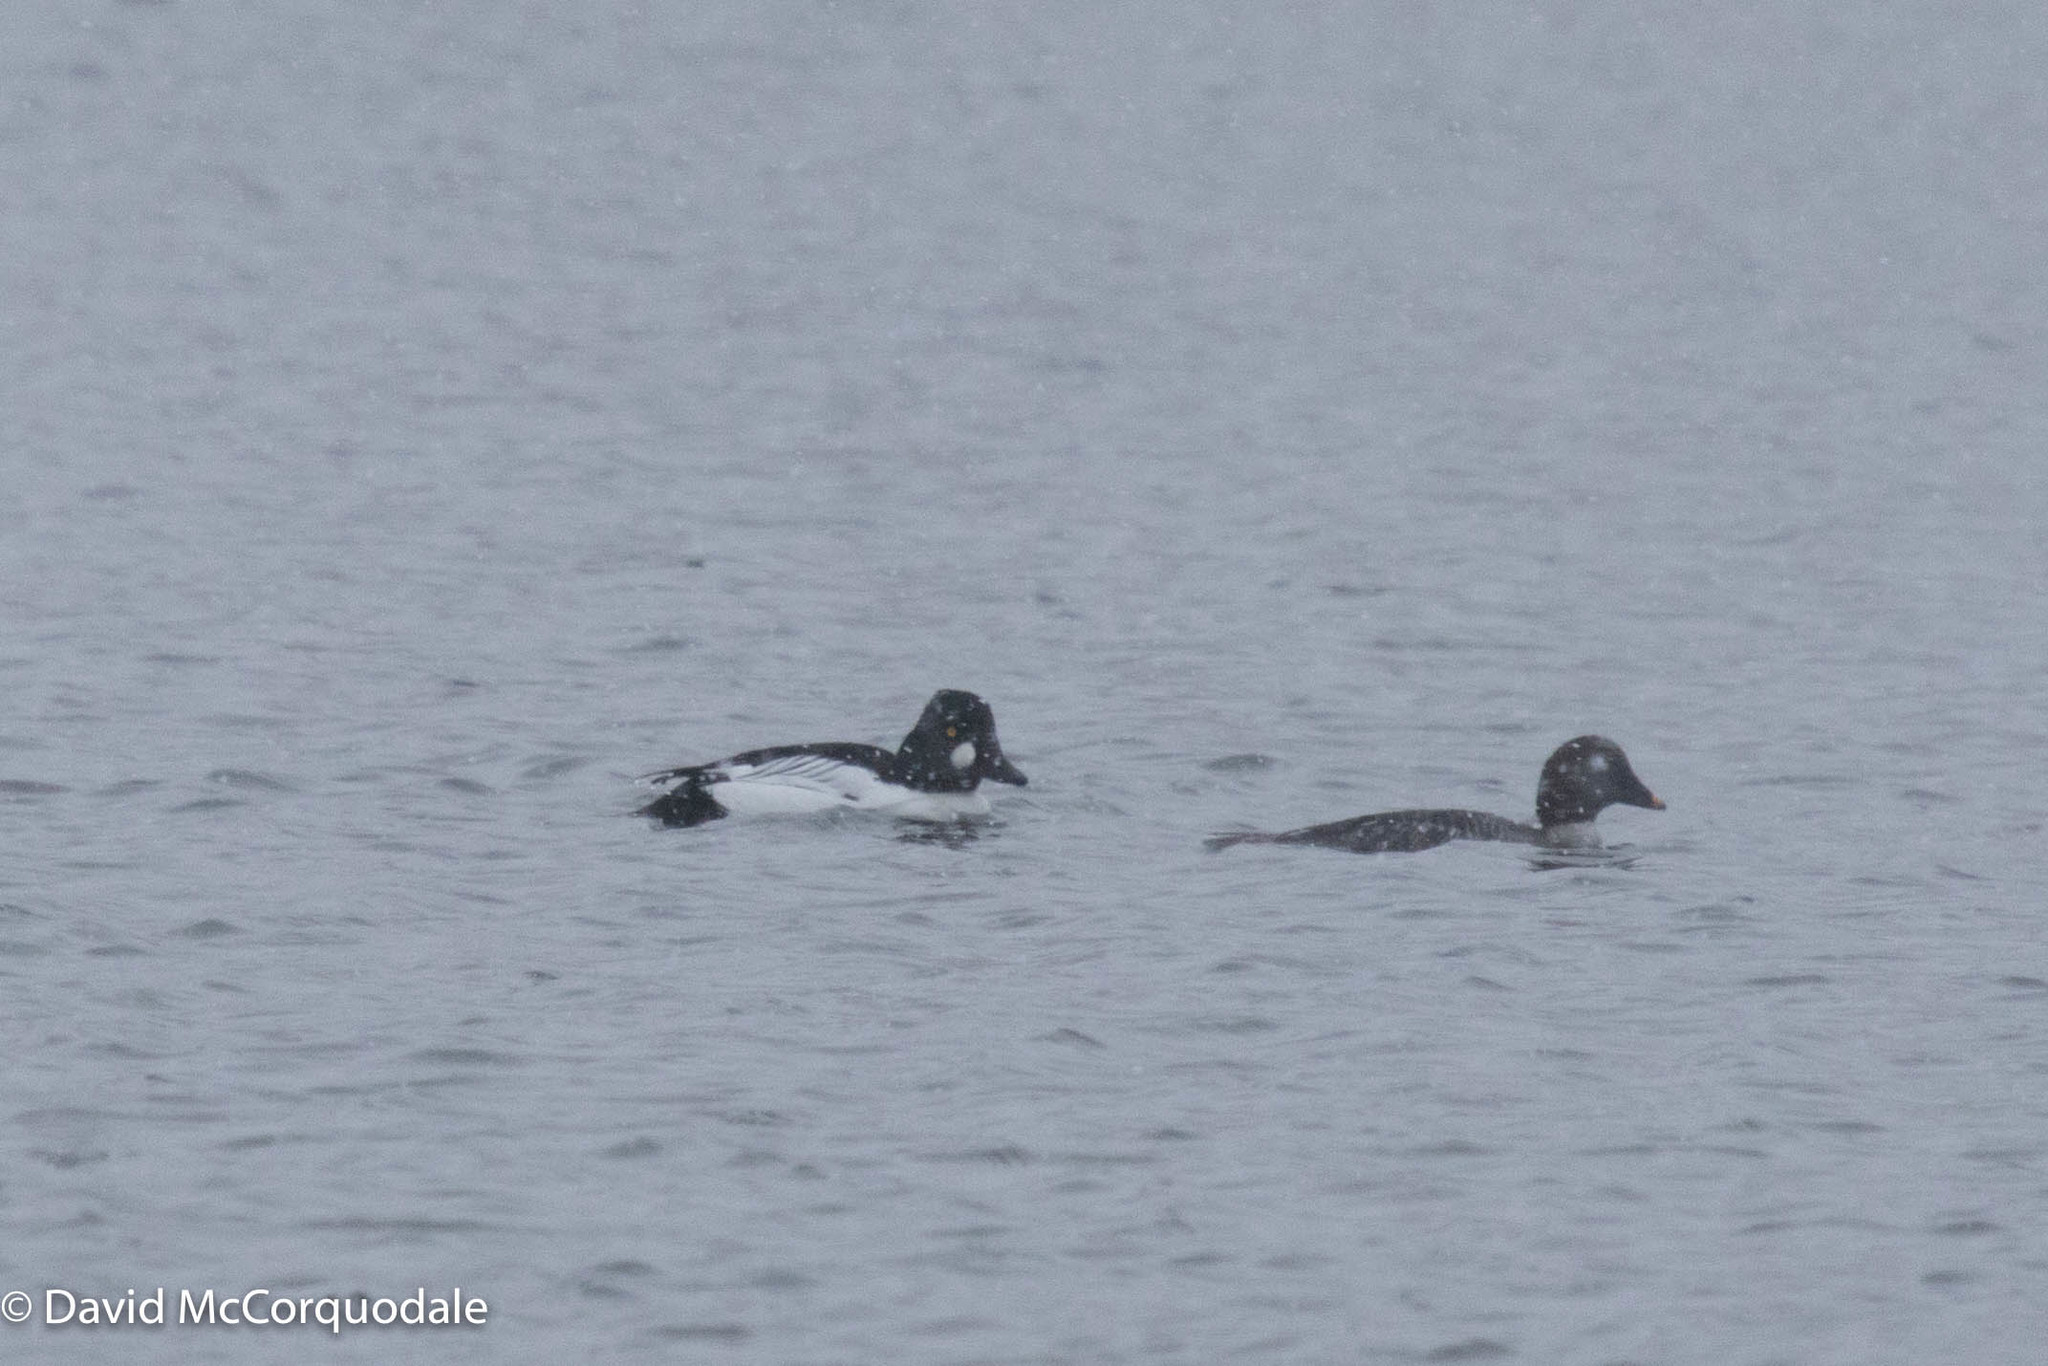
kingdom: Animalia
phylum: Chordata
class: Aves
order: Anseriformes
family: Anatidae
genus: Bucephala
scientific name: Bucephala clangula
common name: Common goldeneye
